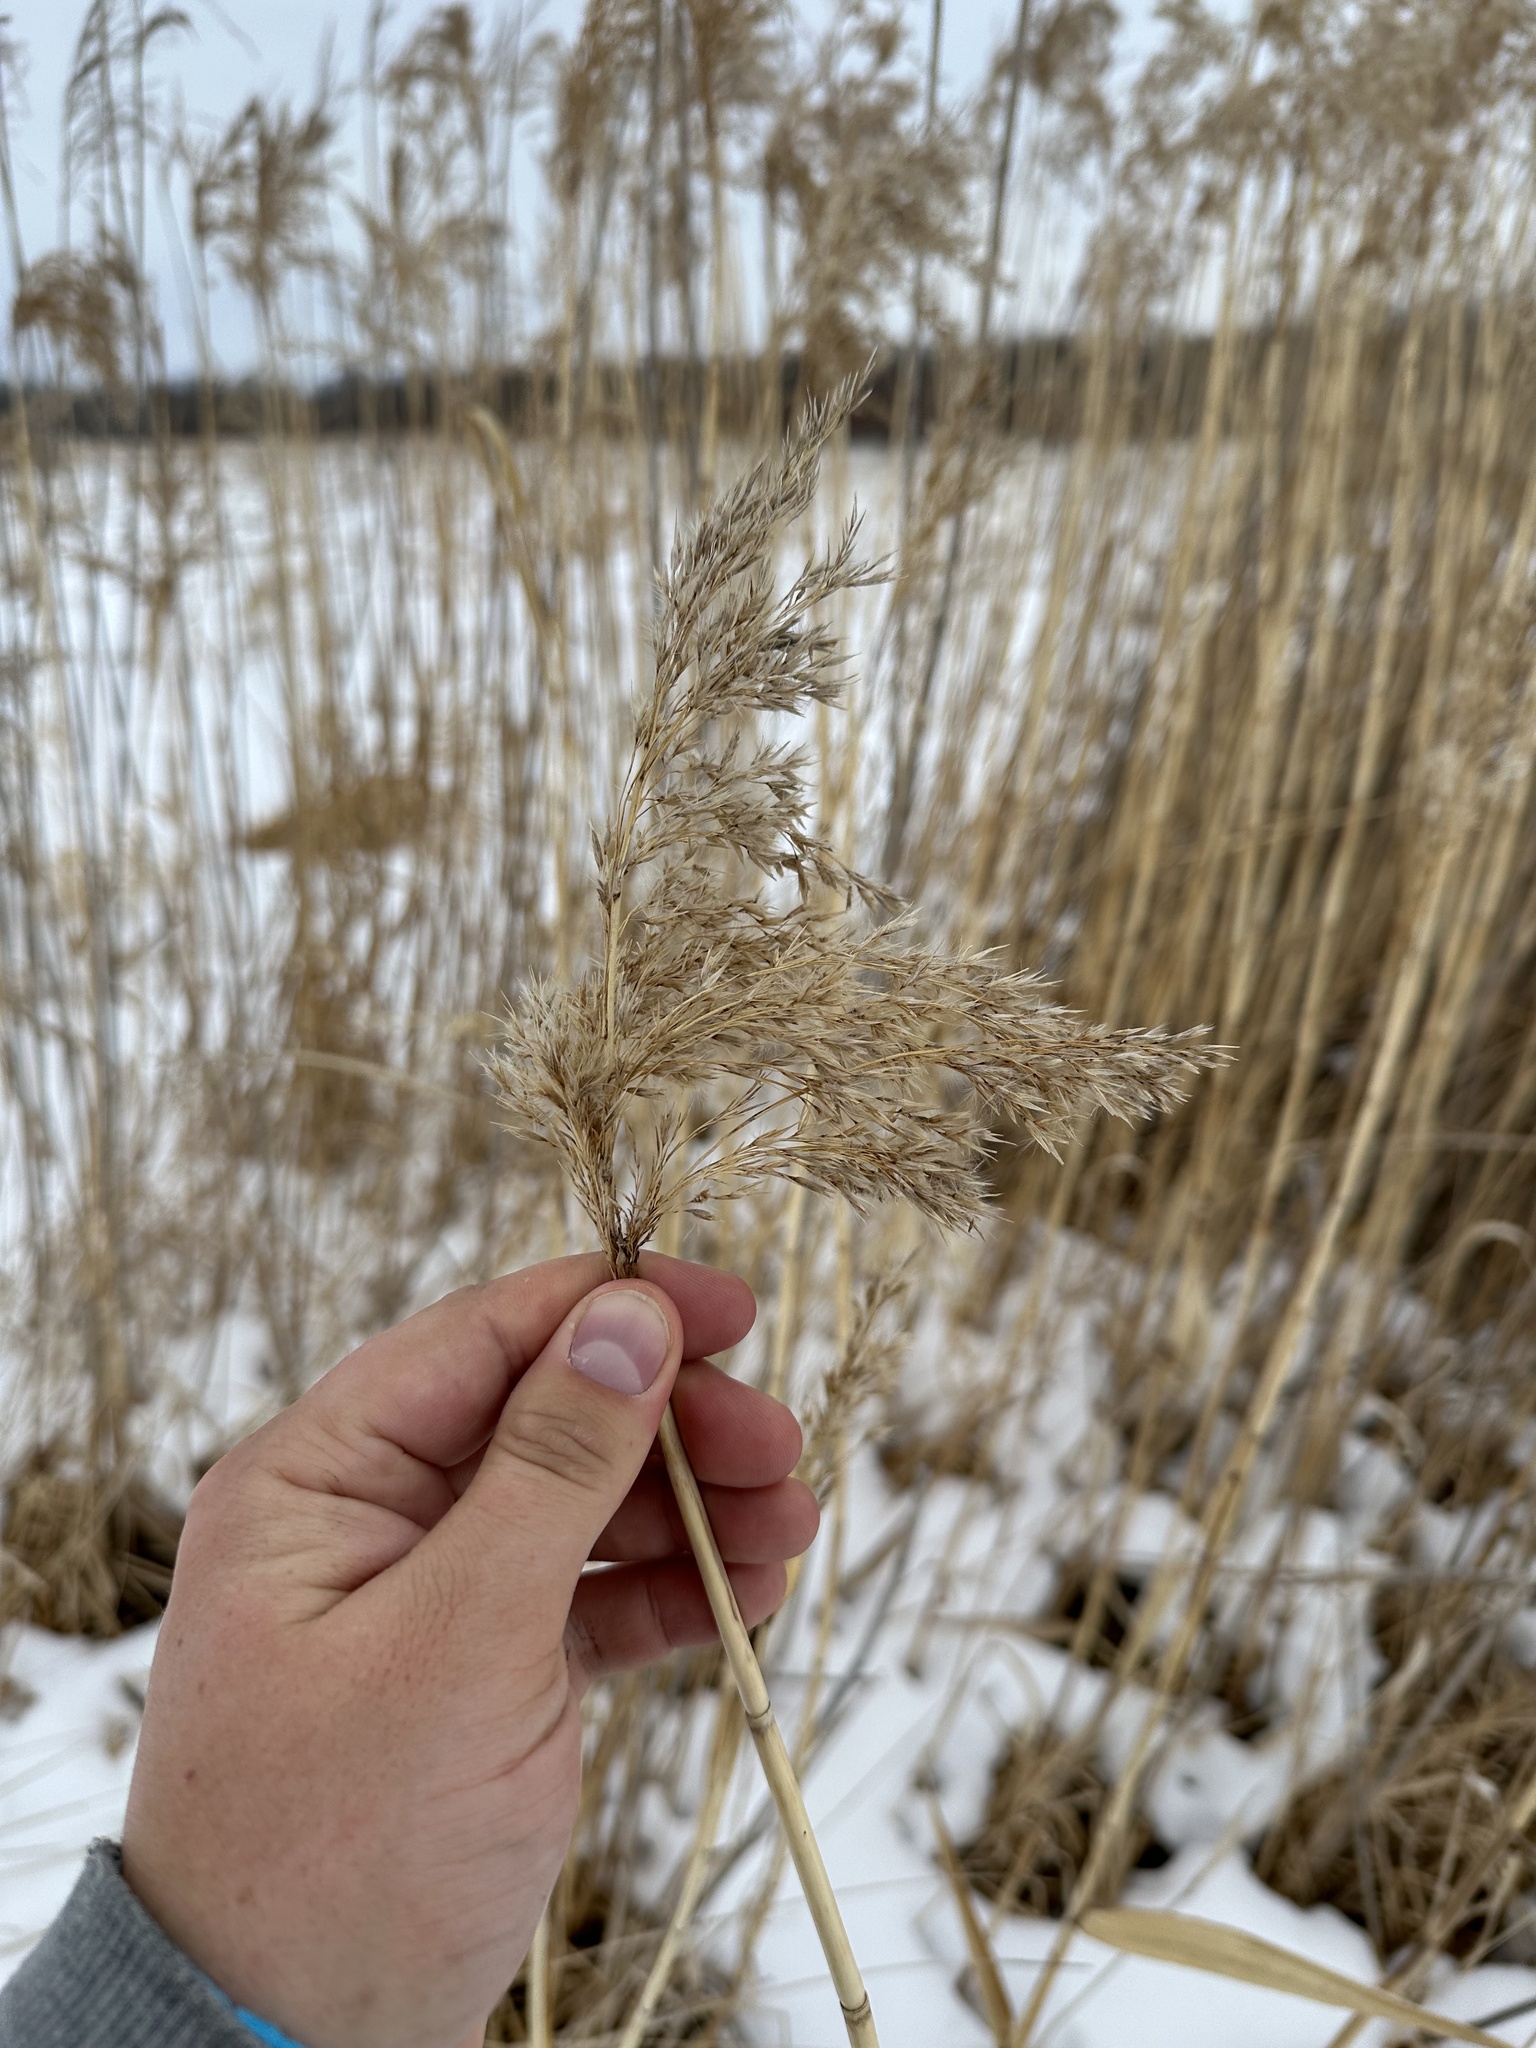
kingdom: Plantae
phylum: Tracheophyta
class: Liliopsida
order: Poales
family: Poaceae
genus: Phragmites
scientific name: Phragmites australis
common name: Common reed
